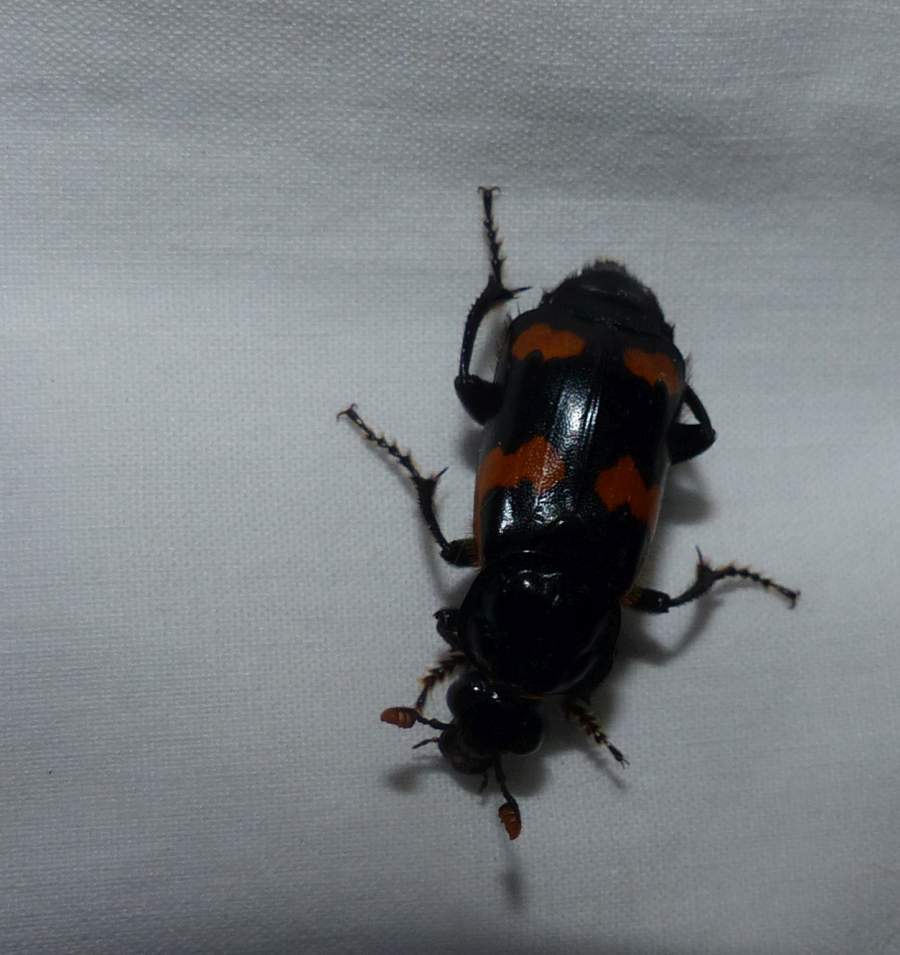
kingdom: Animalia
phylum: Arthropoda
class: Insecta
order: Coleoptera
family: Staphylinidae
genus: Nicrophorus
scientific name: Nicrophorus sayi
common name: Say's burying beetle
